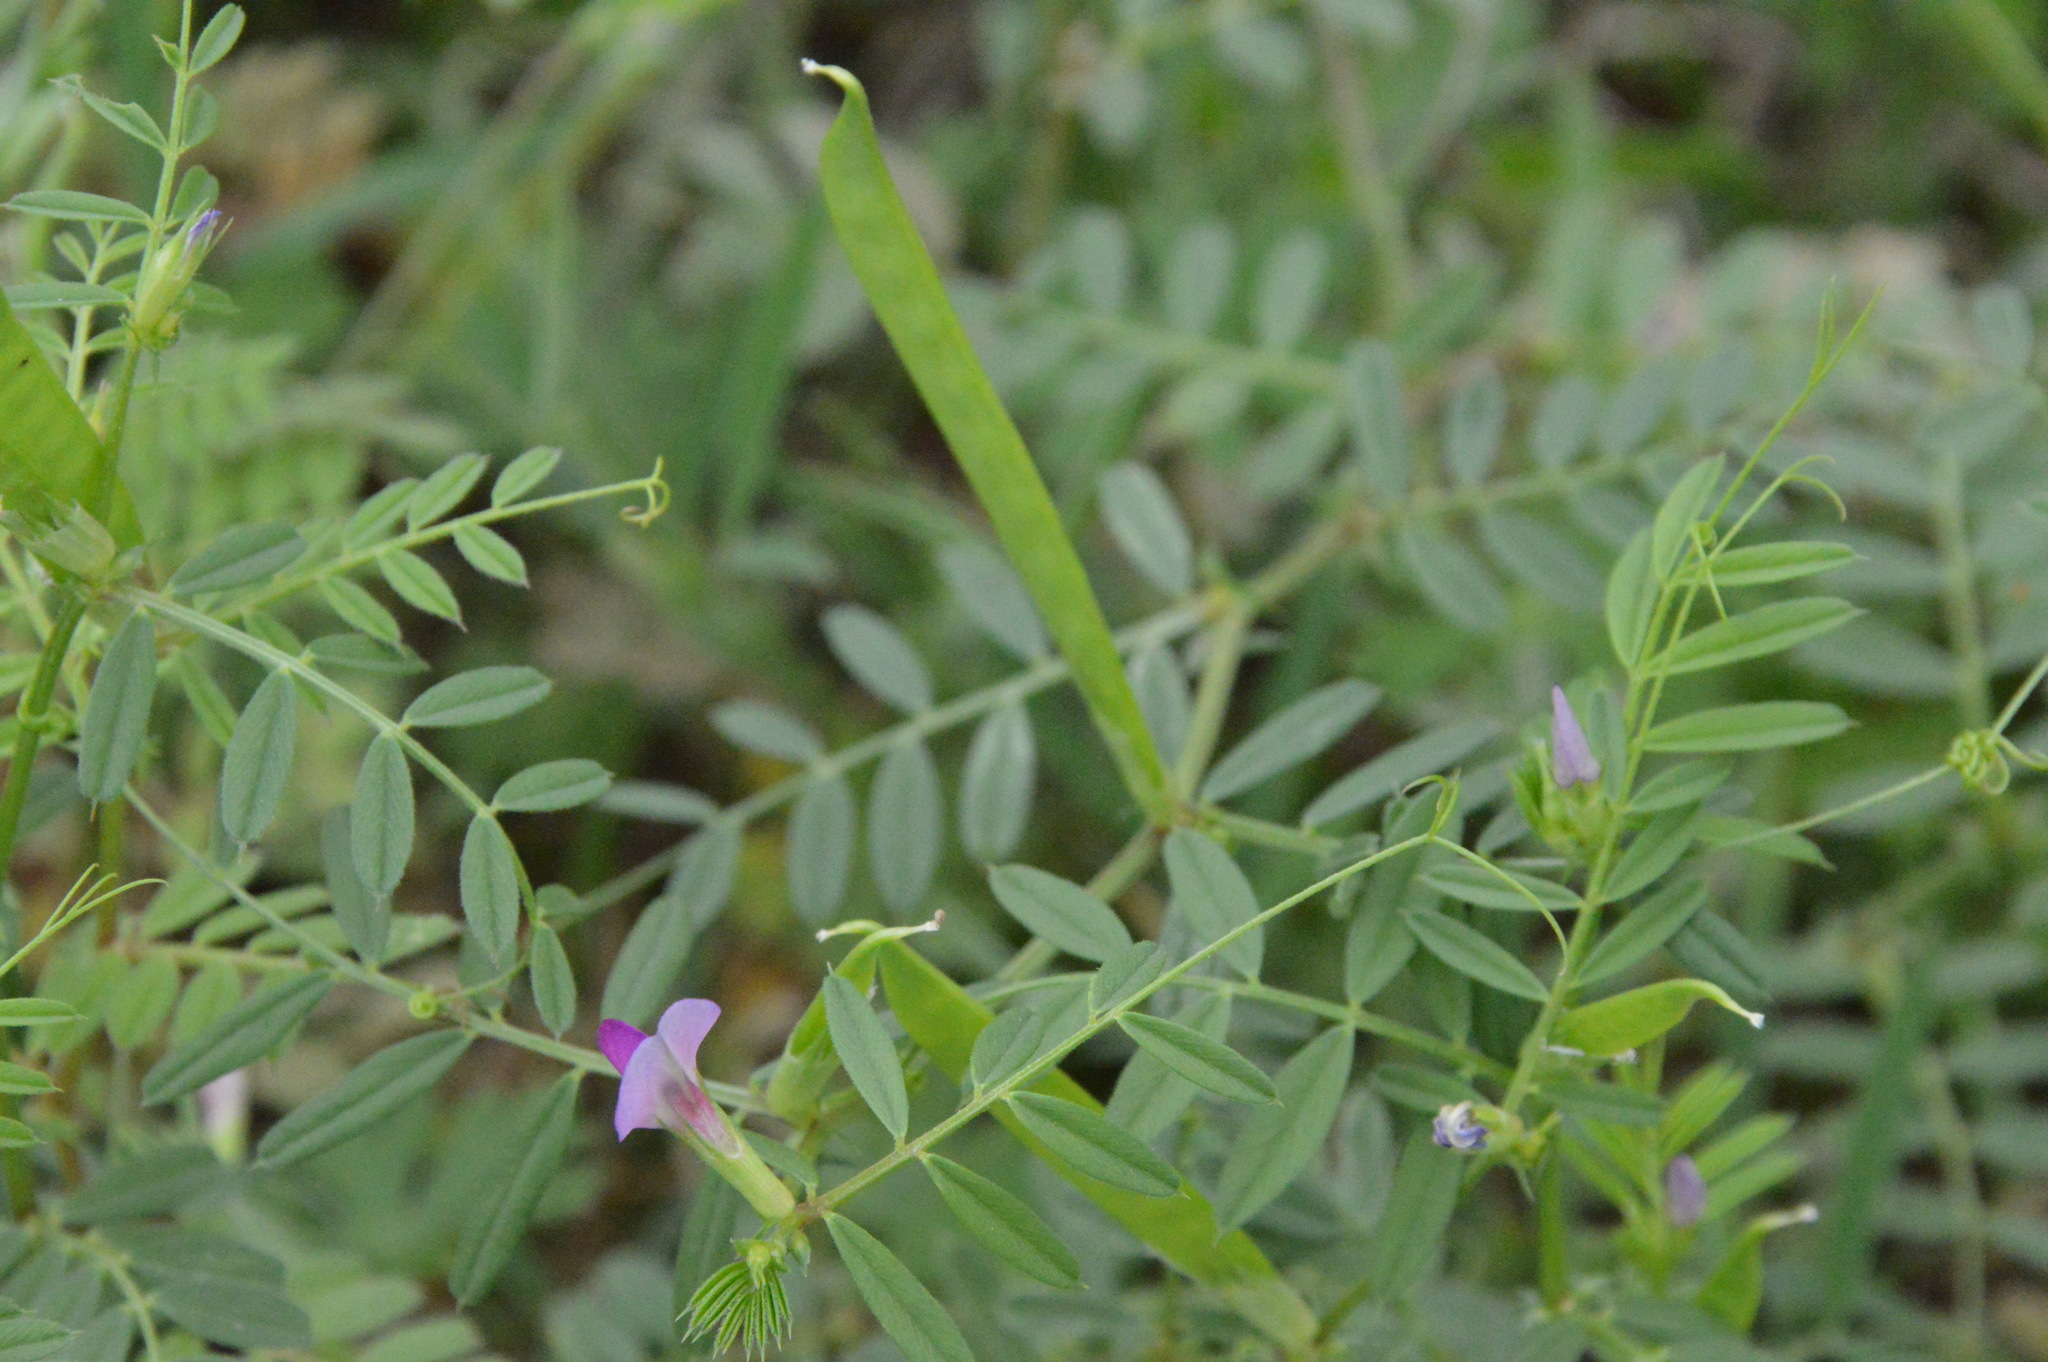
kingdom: Plantae
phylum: Tracheophyta
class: Magnoliopsida
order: Fabales
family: Fabaceae
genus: Vicia
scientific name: Vicia sativa
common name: Garden vetch
